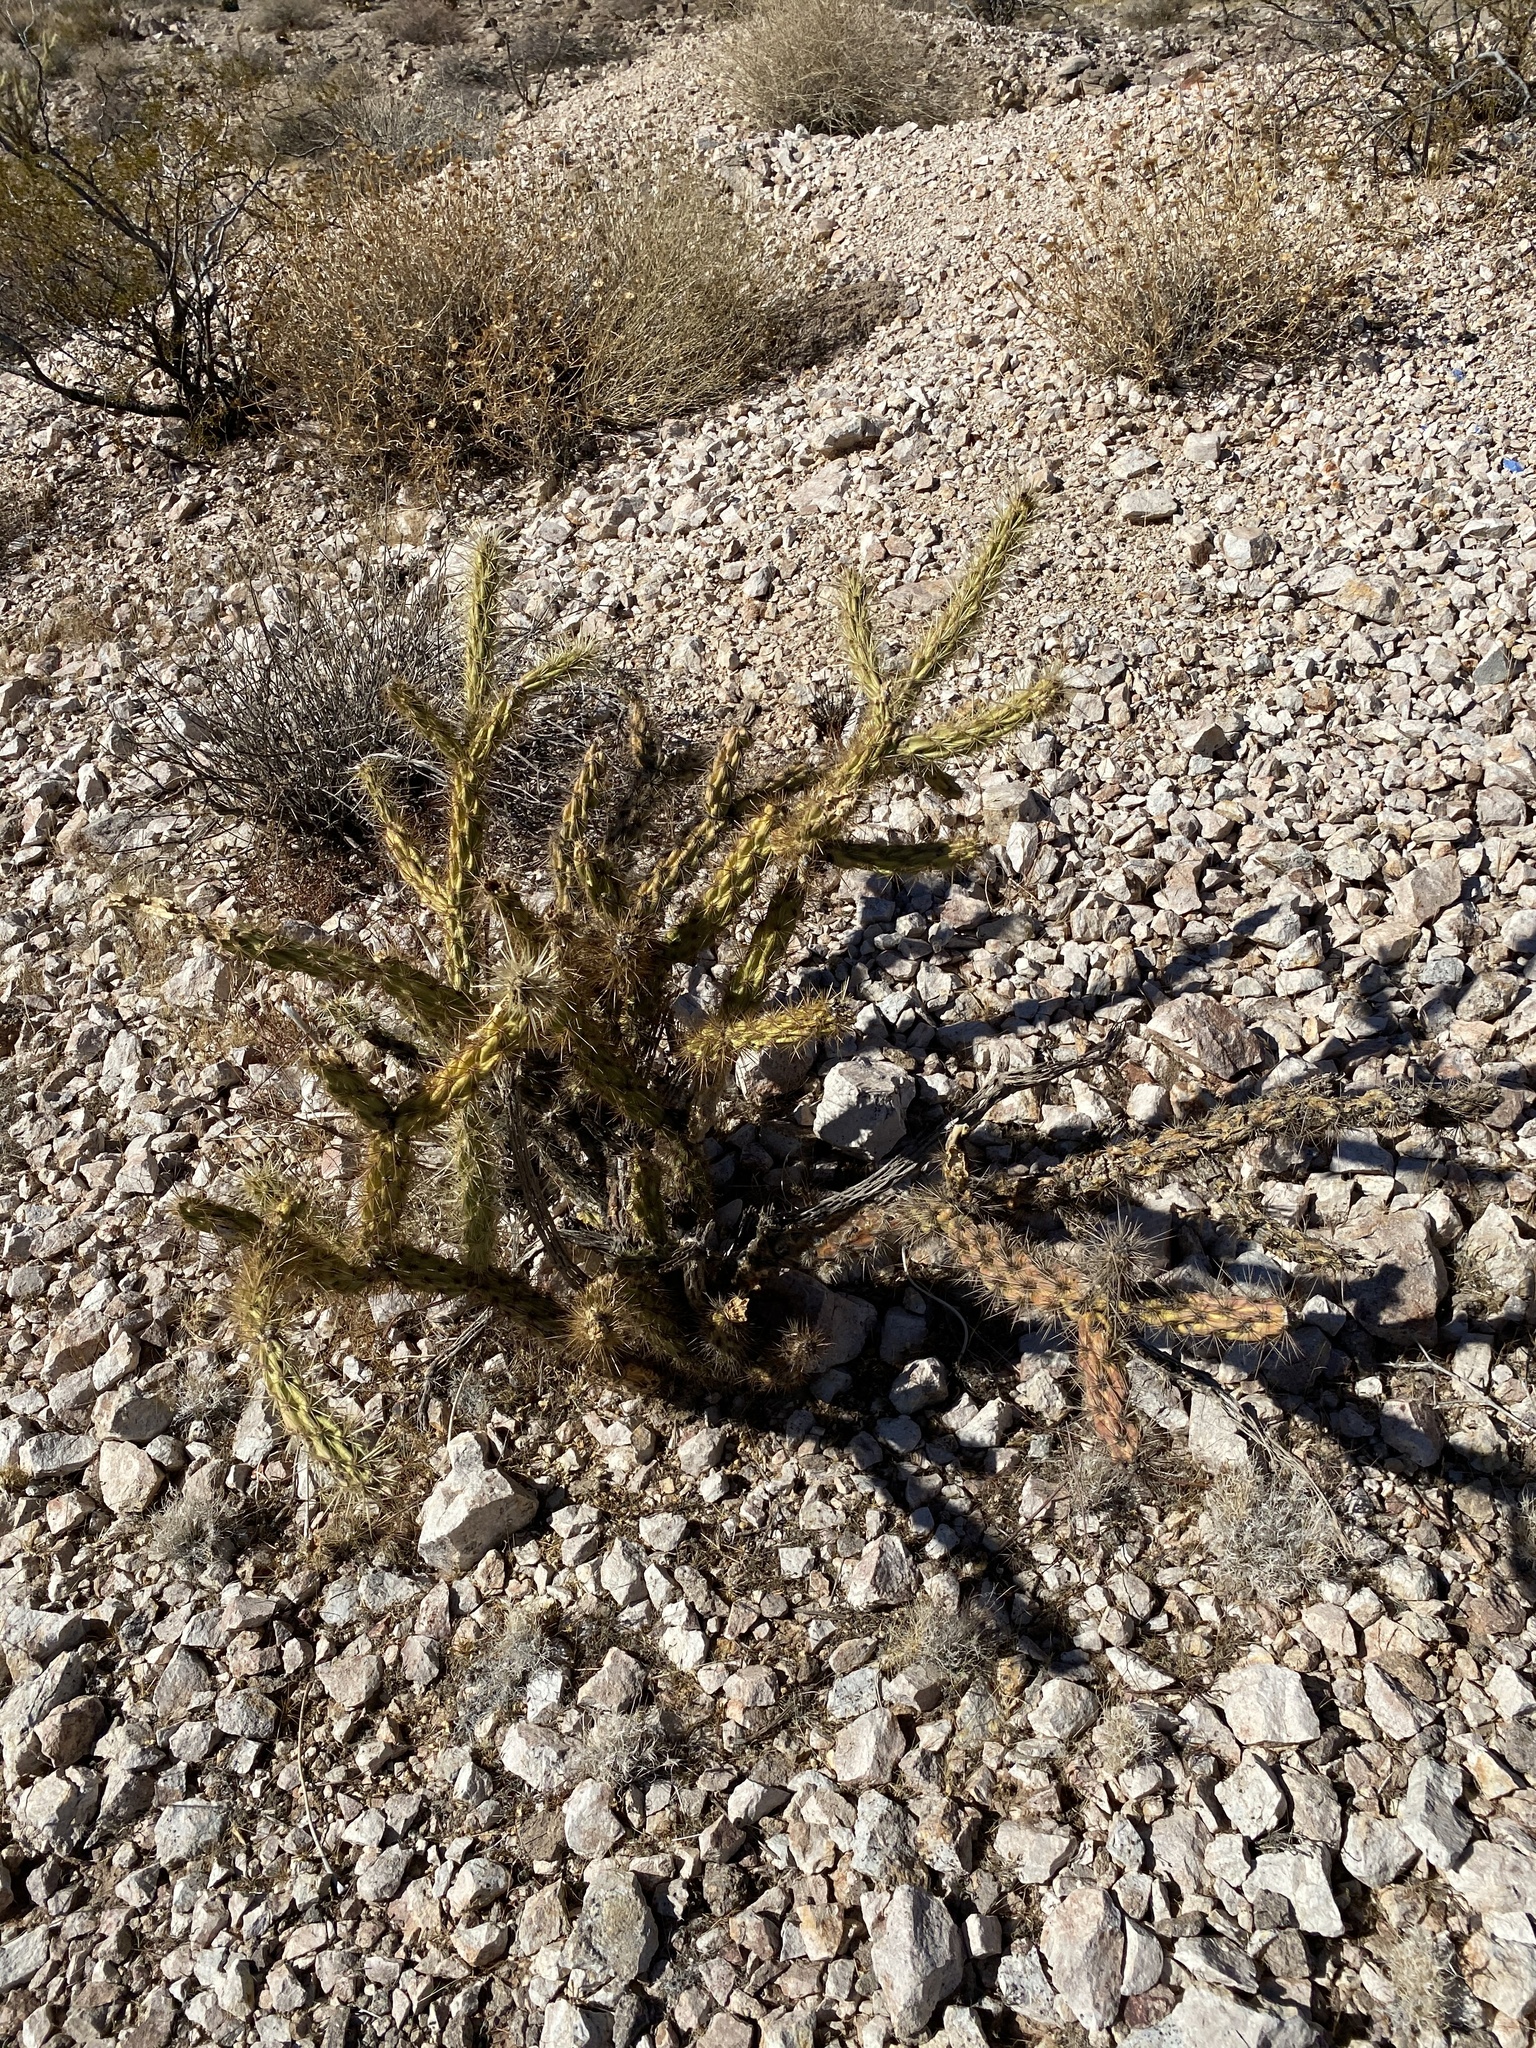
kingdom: Plantae
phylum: Tracheophyta
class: Magnoliopsida
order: Caryophyllales
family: Cactaceae
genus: Cylindropuntia
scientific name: Cylindropuntia acanthocarpa
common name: Buckhorn cholla
